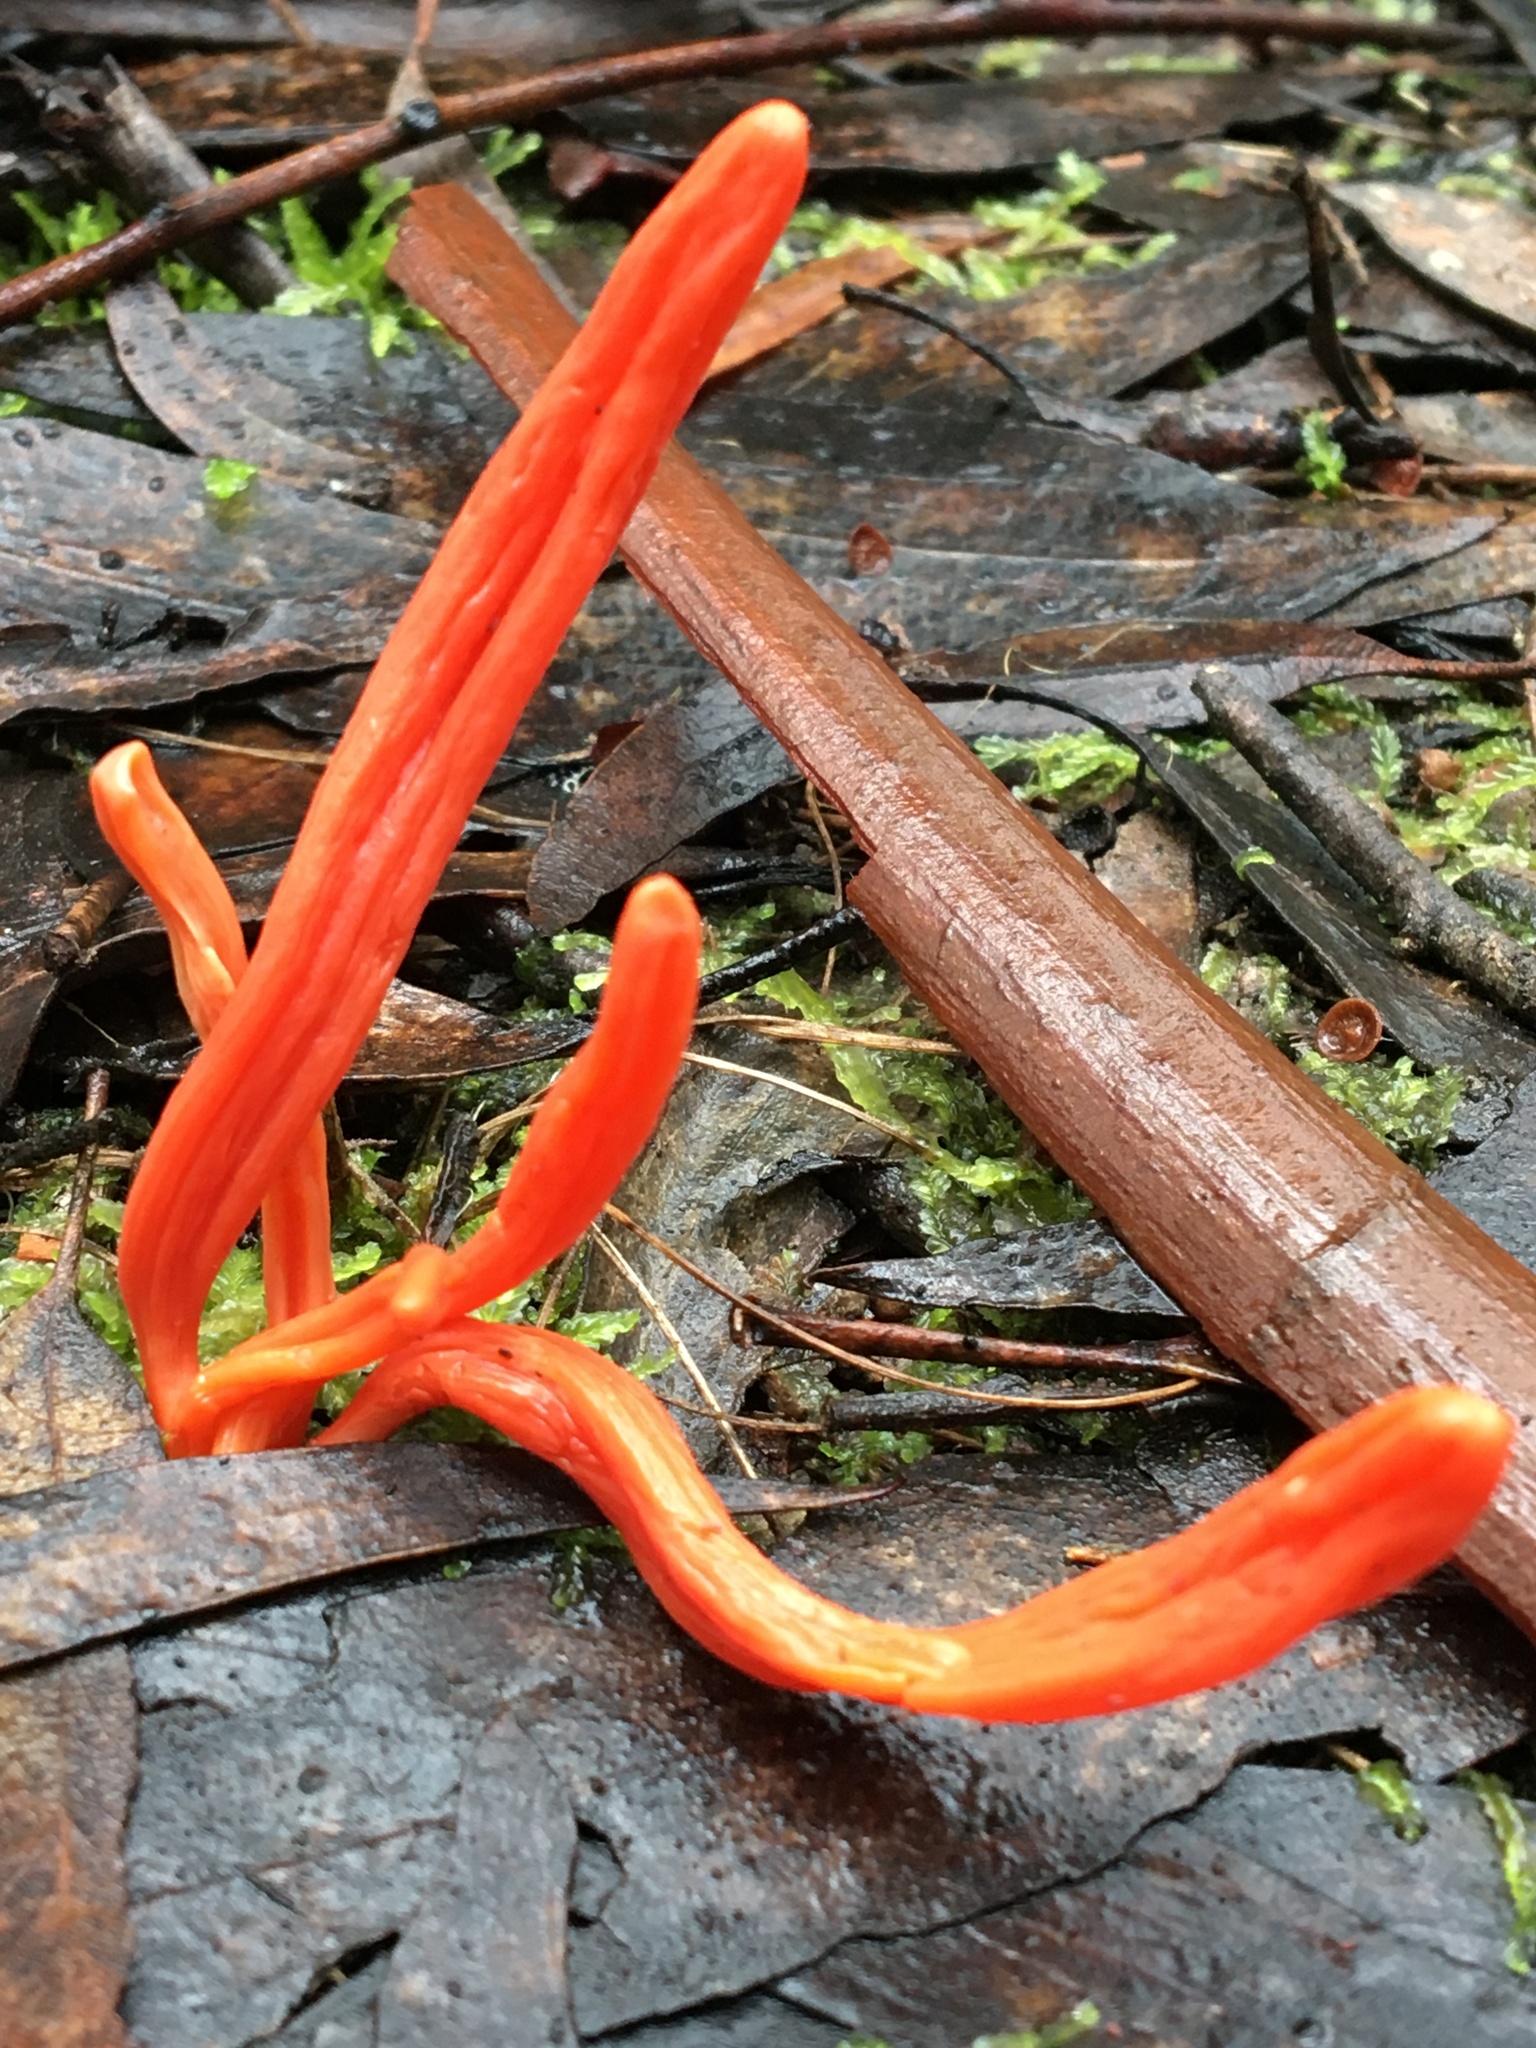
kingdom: Fungi
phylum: Basidiomycota
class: Agaricomycetes
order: Agaricales
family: Clavariaceae
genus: Clavulinopsis
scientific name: Clavulinopsis sulcata
